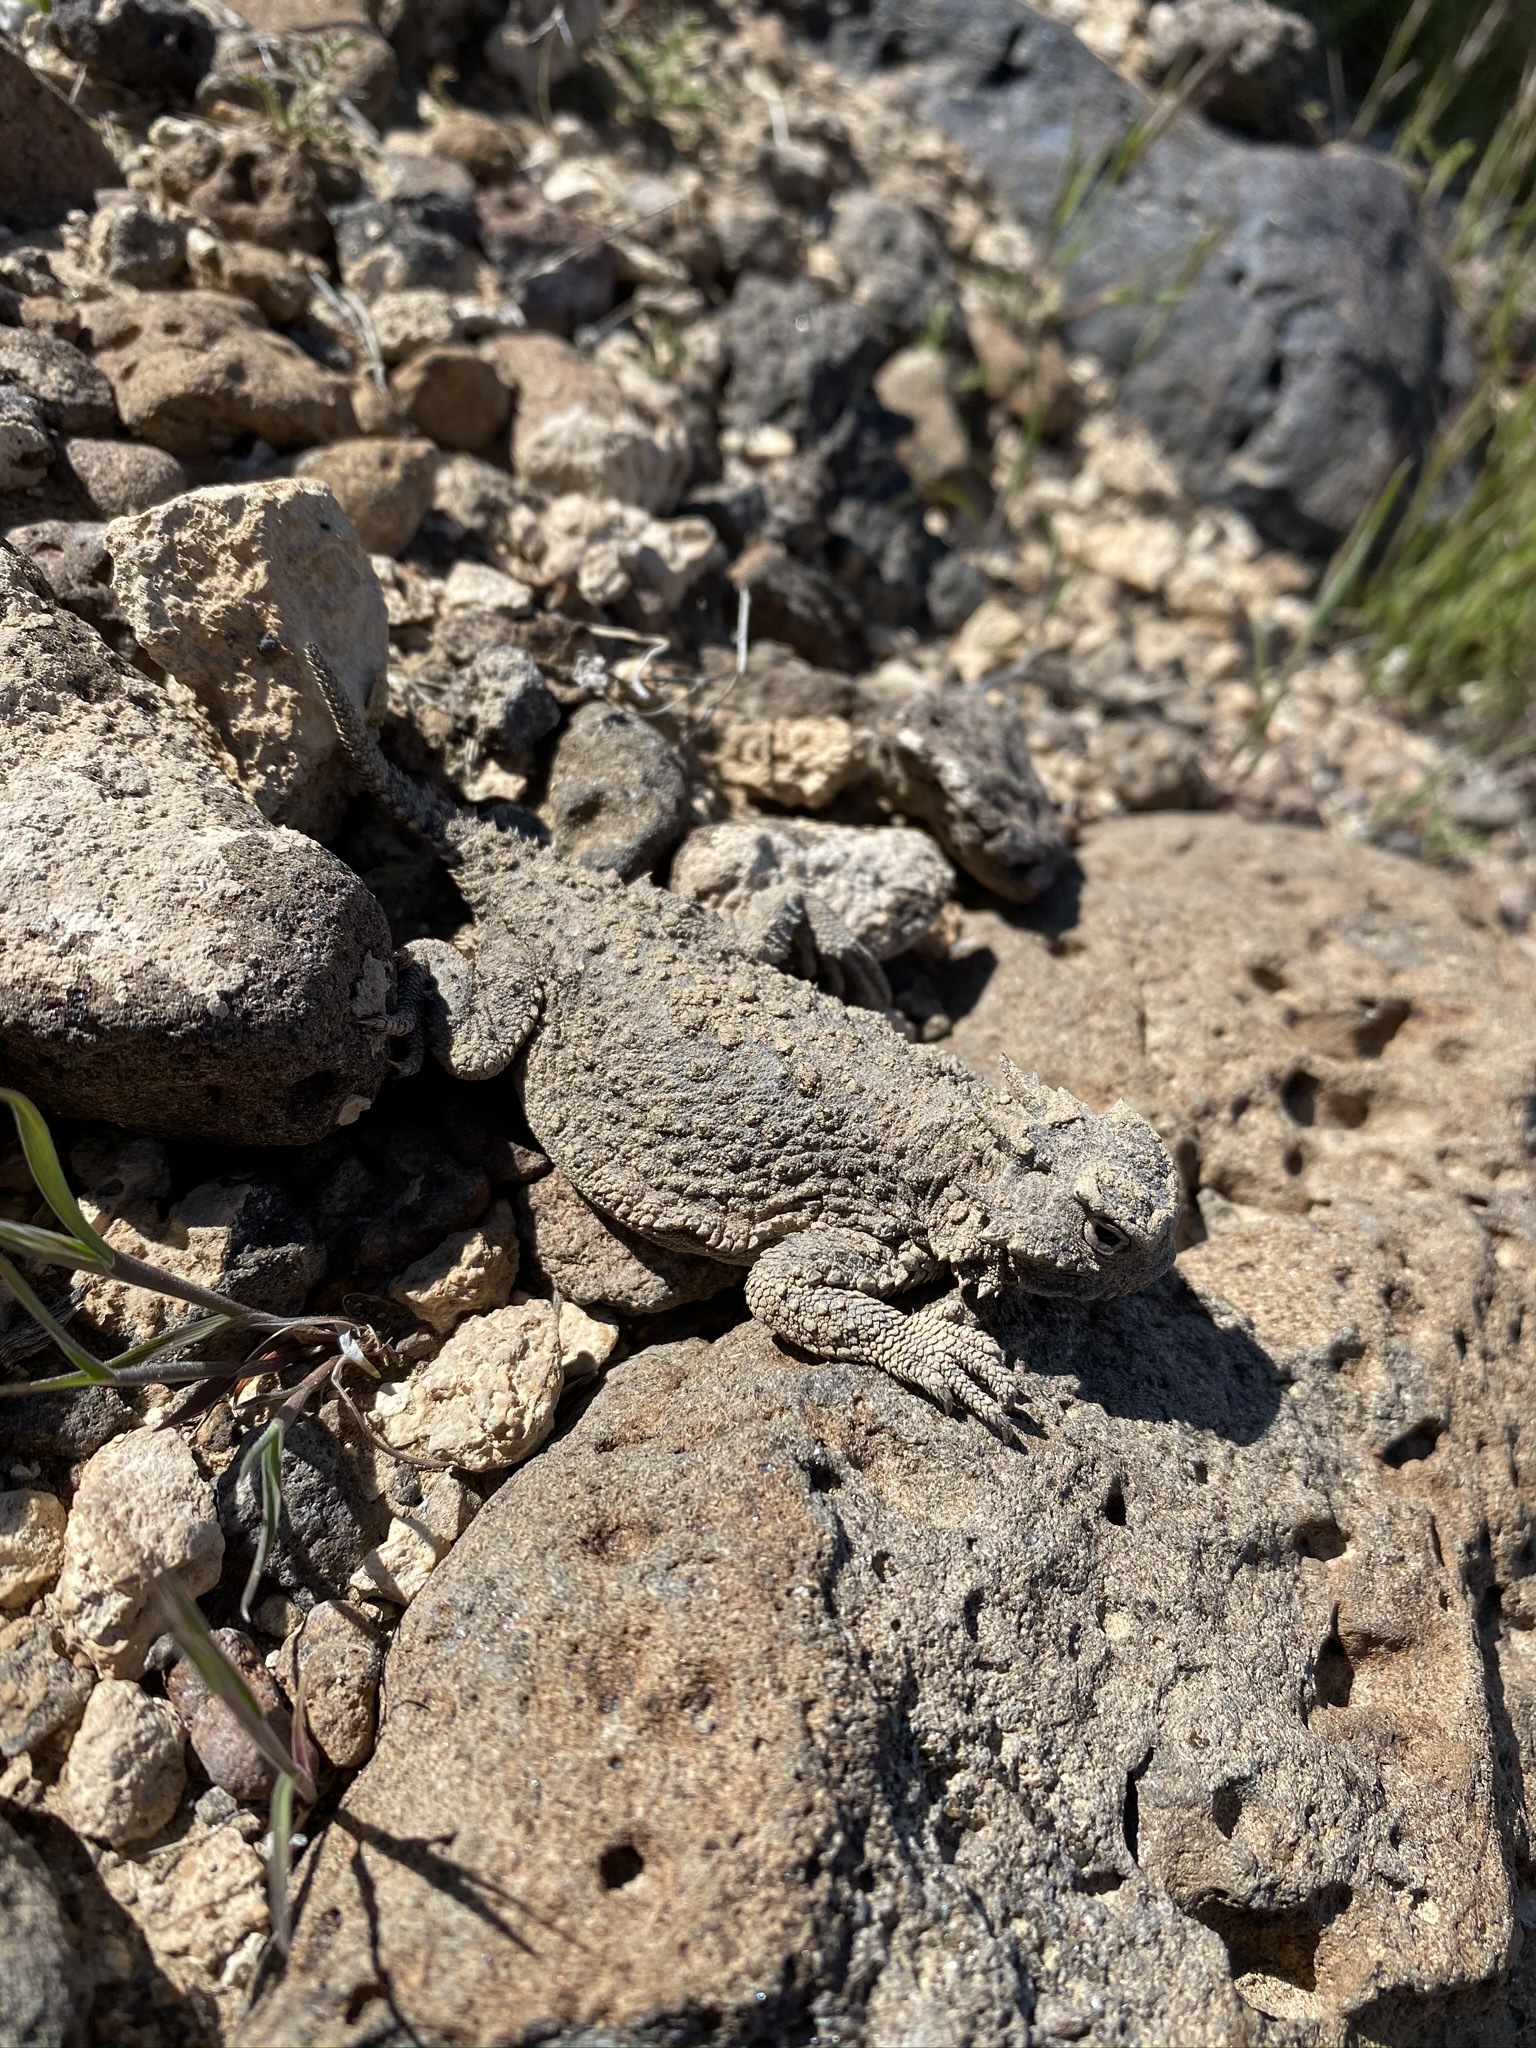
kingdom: Animalia
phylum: Chordata
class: Squamata
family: Phrynosomatidae
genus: Phrynosoma
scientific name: Phrynosoma platyrhinos
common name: Desert horned lizard
